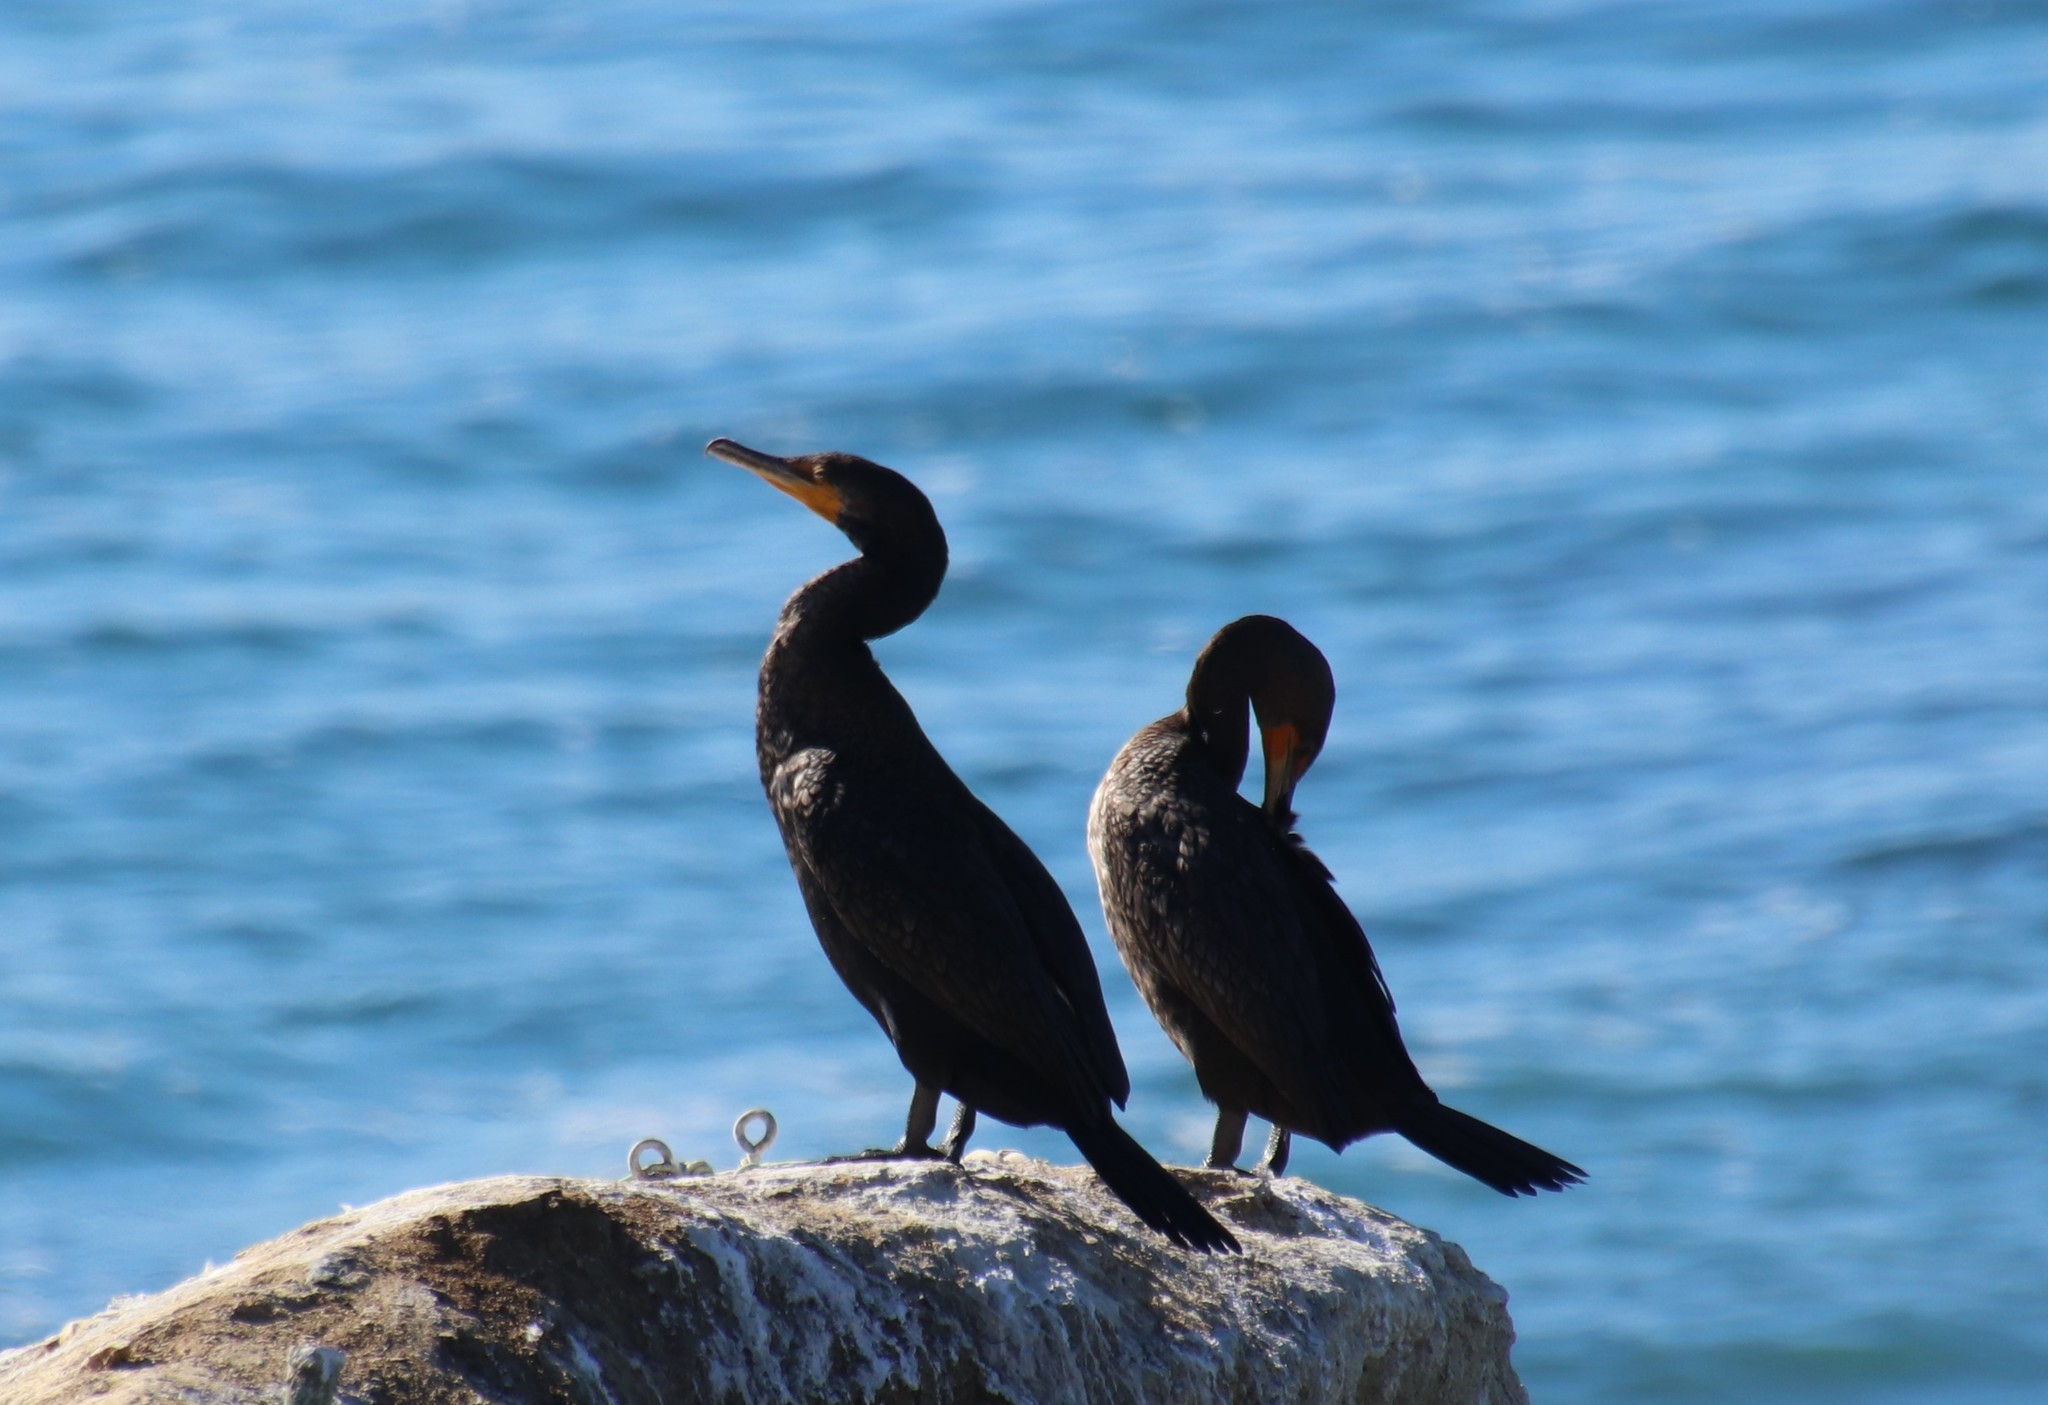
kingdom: Animalia
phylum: Chordata
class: Aves
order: Suliformes
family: Phalacrocoracidae
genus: Phalacrocorax
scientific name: Phalacrocorax auritus
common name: Double-crested cormorant
